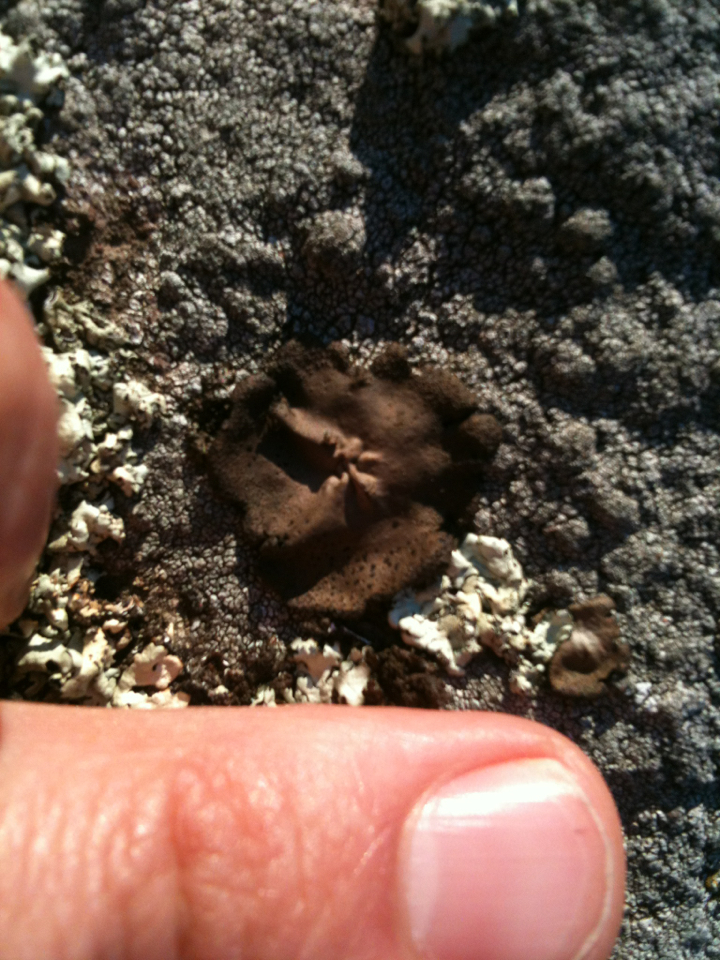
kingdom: Fungi
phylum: Ascomycota
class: Lecanoromycetes
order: Umbilicariales
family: Umbilicariaceae
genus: Umbilicaria
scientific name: Umbilicaria phaea
